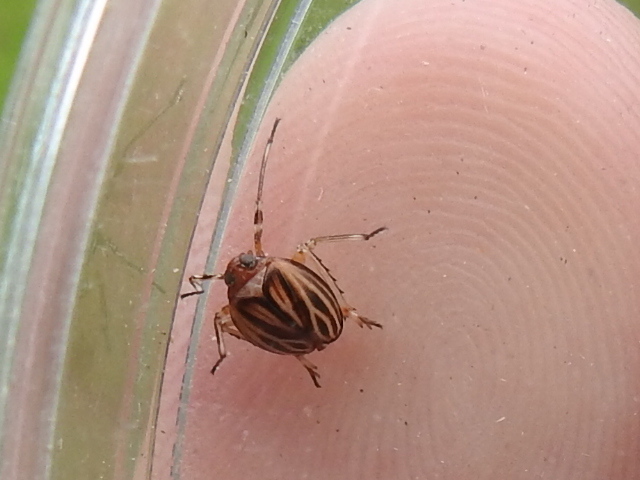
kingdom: Animalia
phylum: Arthropoda
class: Insecta
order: Hemiptera
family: Achilidae
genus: Isodaemon
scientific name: Isodaemon orontes
